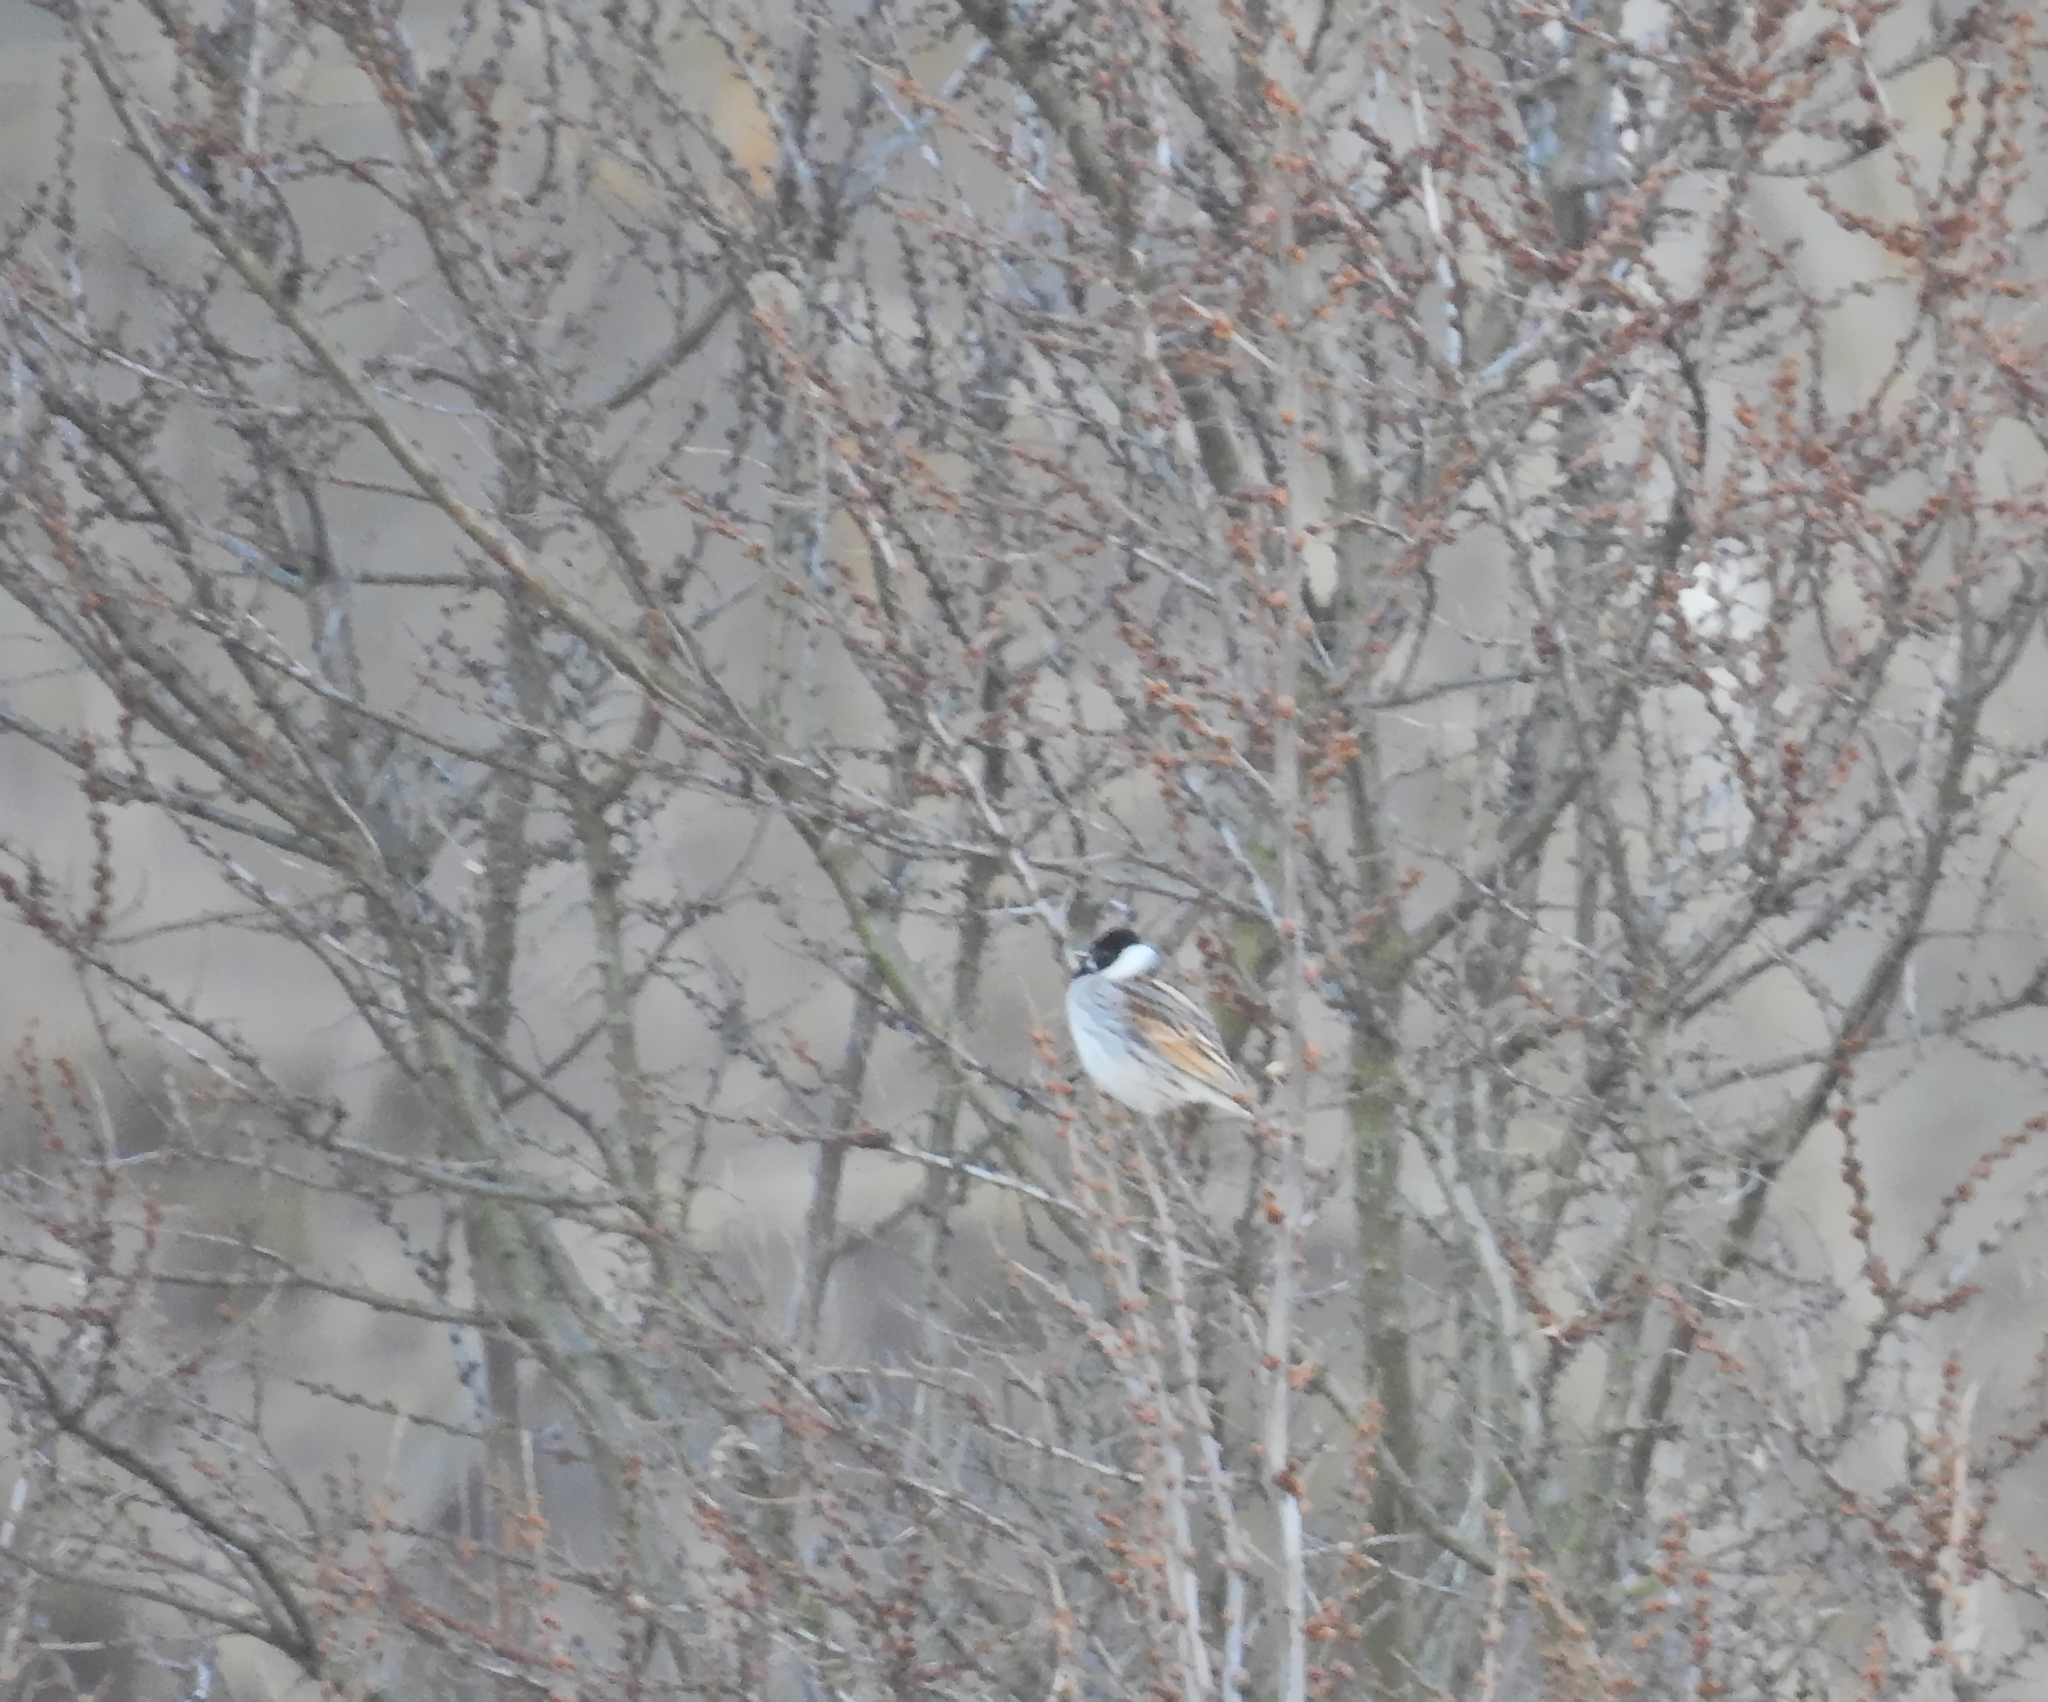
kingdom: Animalia
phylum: Chordata
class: Aves
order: Passeriformes
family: Emberizidae
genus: Emberiza
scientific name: Emberiza schoeniclus
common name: Reed bunting
